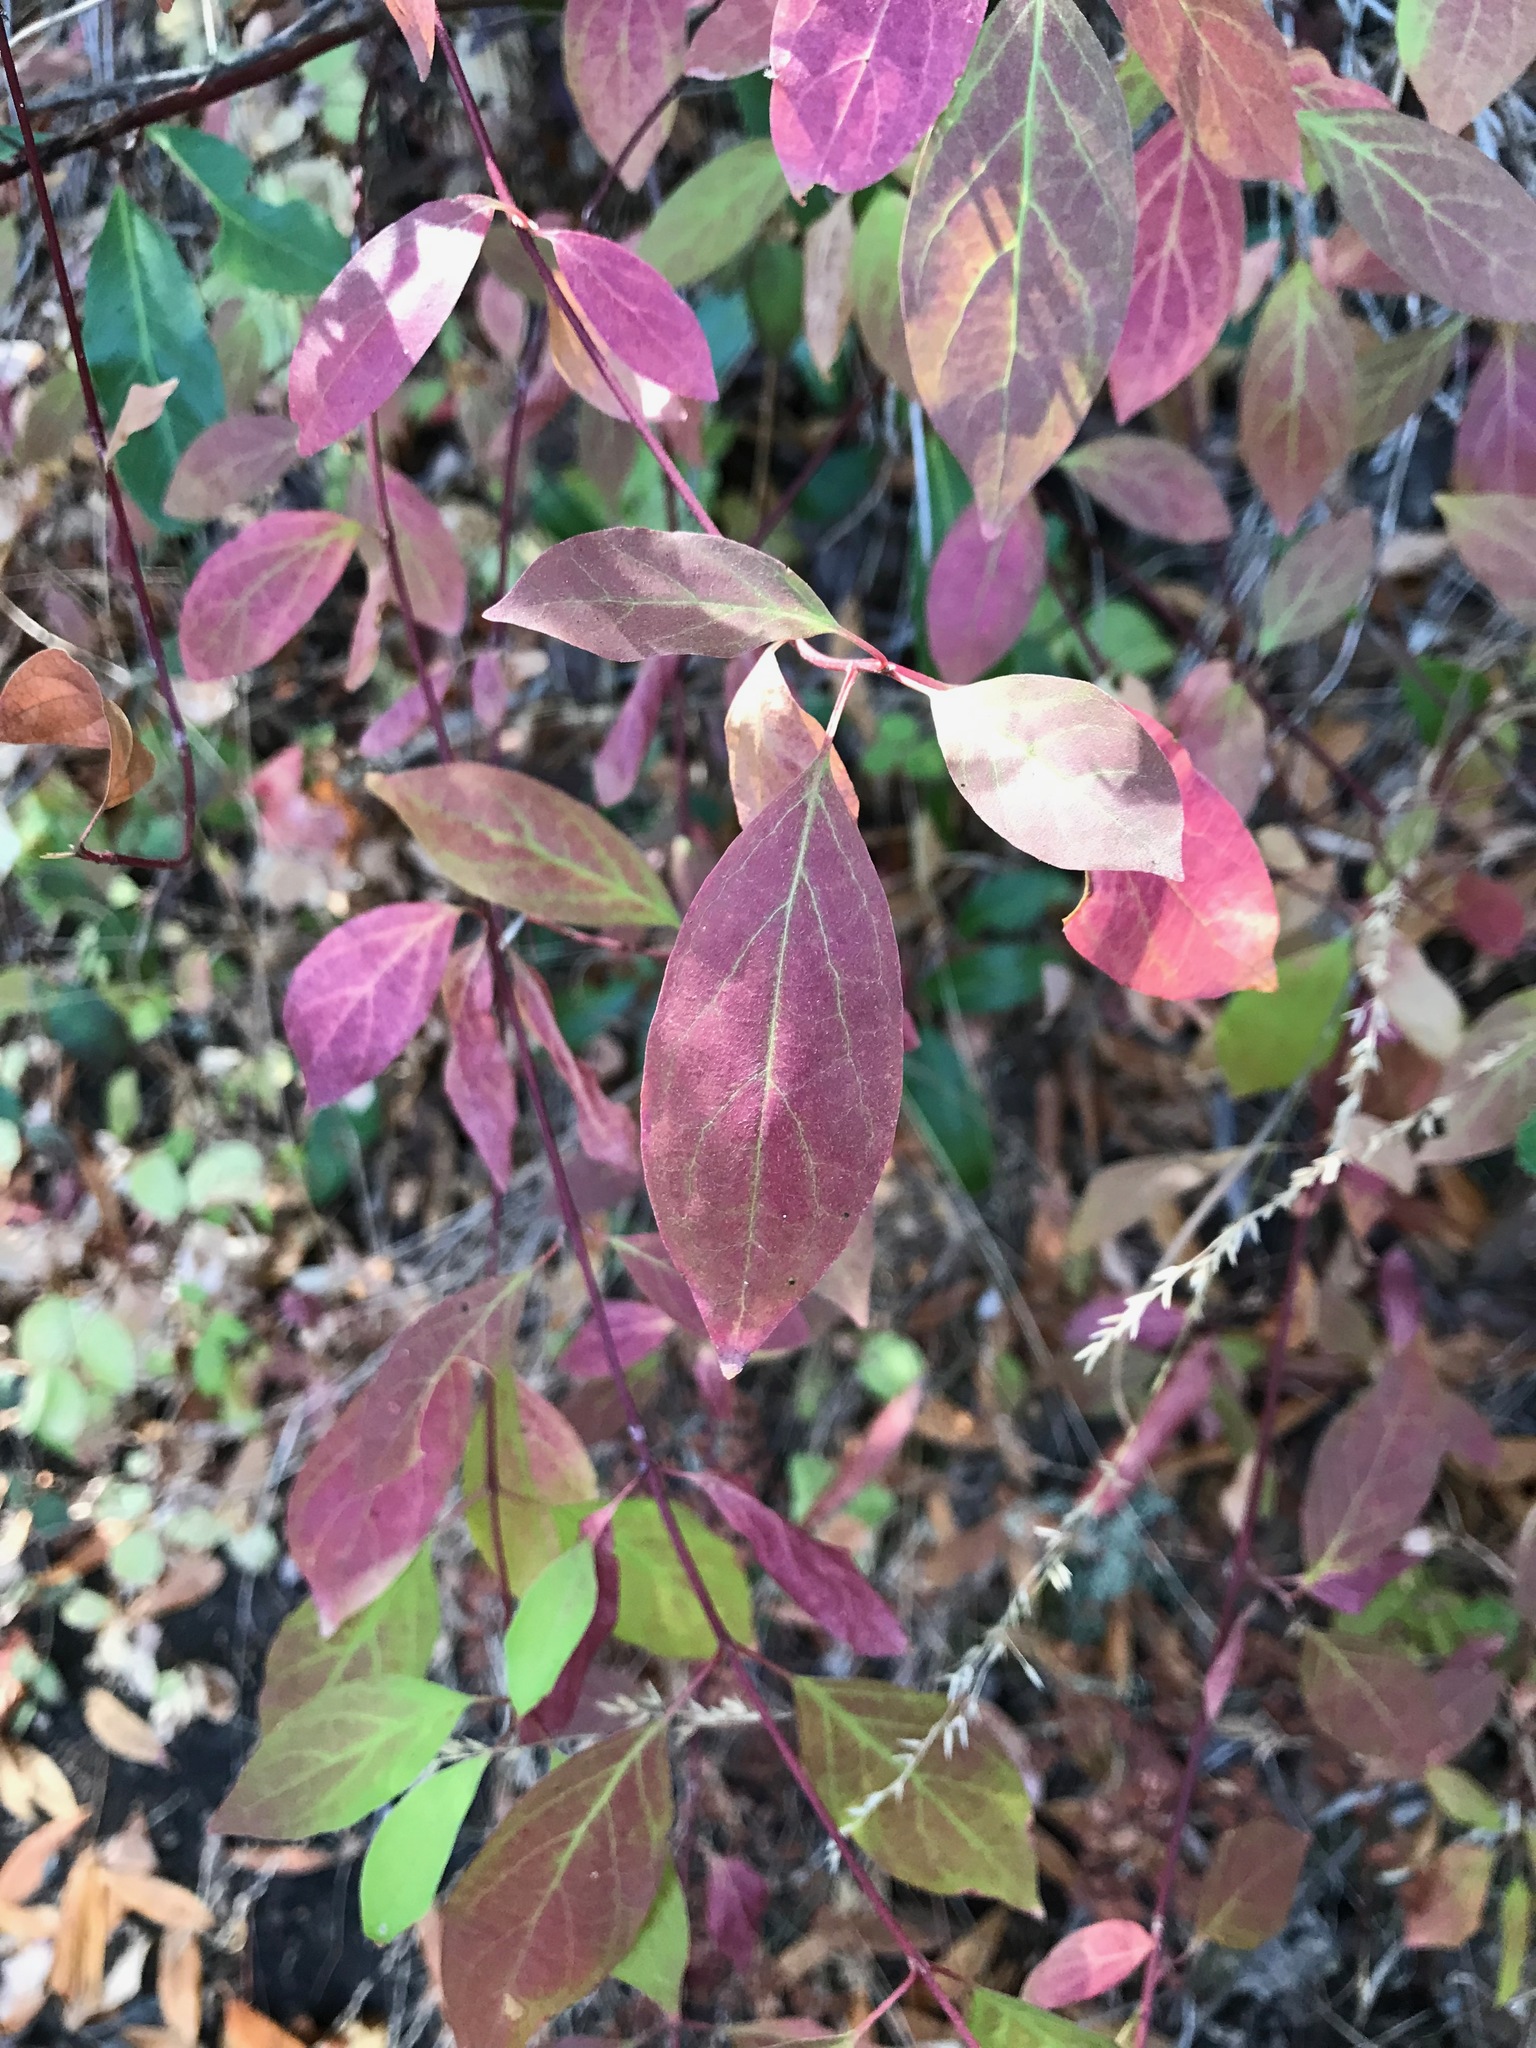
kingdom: Plantae
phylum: Tracheophyta
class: Magnoliopsida
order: Cornales
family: Cornaceae
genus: Cornus
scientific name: Cornus glabrata
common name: Smooth dogwood
